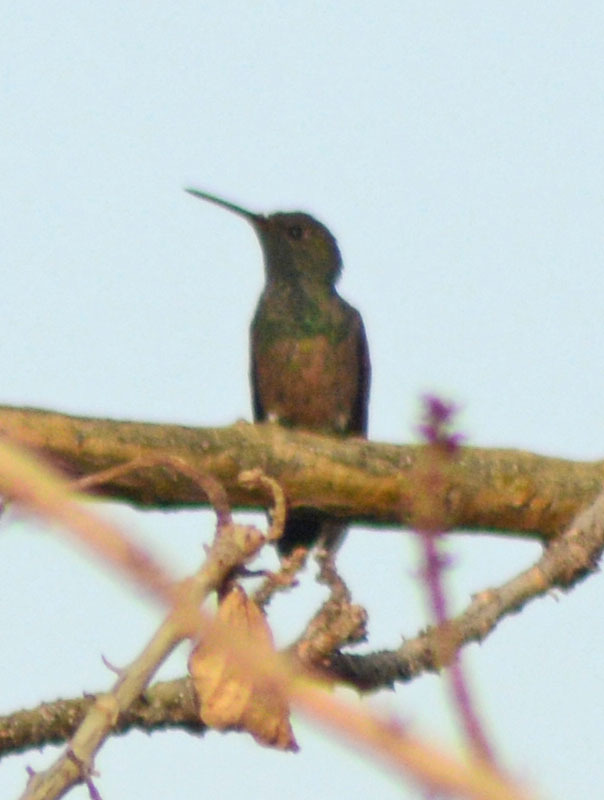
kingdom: Animalia
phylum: Chordata
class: Aves
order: Apodiformes
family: Trochilidae
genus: Saucerottia
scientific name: Saucerottia beryllina
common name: Berylline hummingbird
